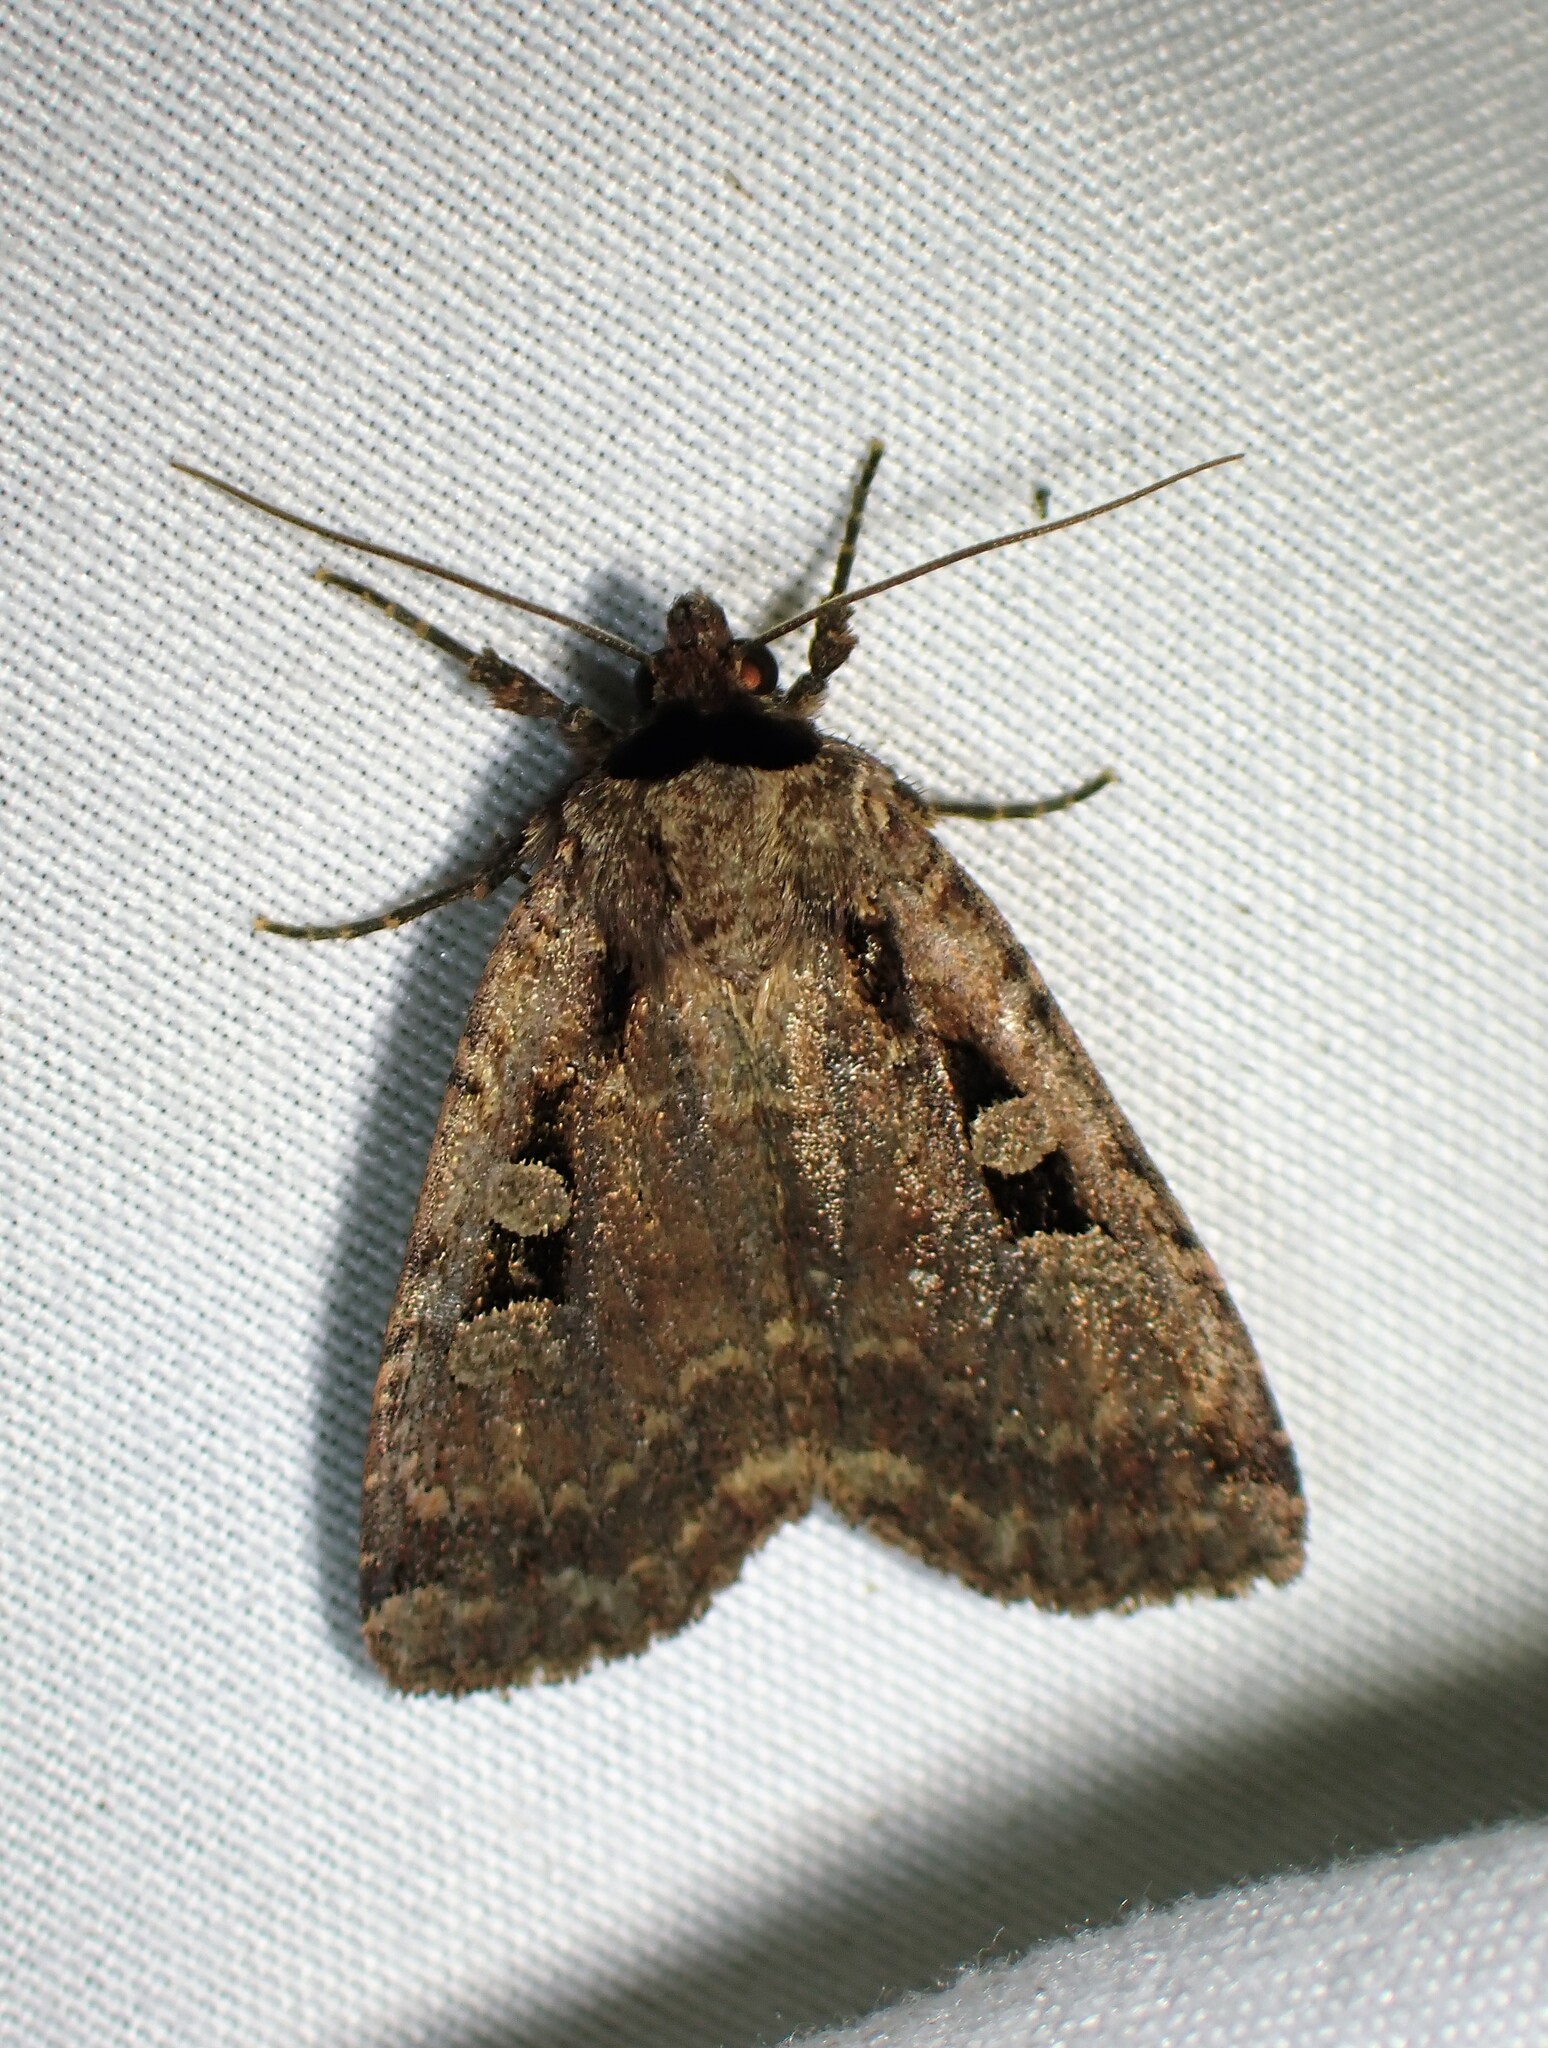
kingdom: Animalia
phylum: Arthropoda
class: Insecta
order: Lepidoptera
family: Noctuidae
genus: Eueretagrotis
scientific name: Eueretagrotis perattentus
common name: Two-spot dart moth
